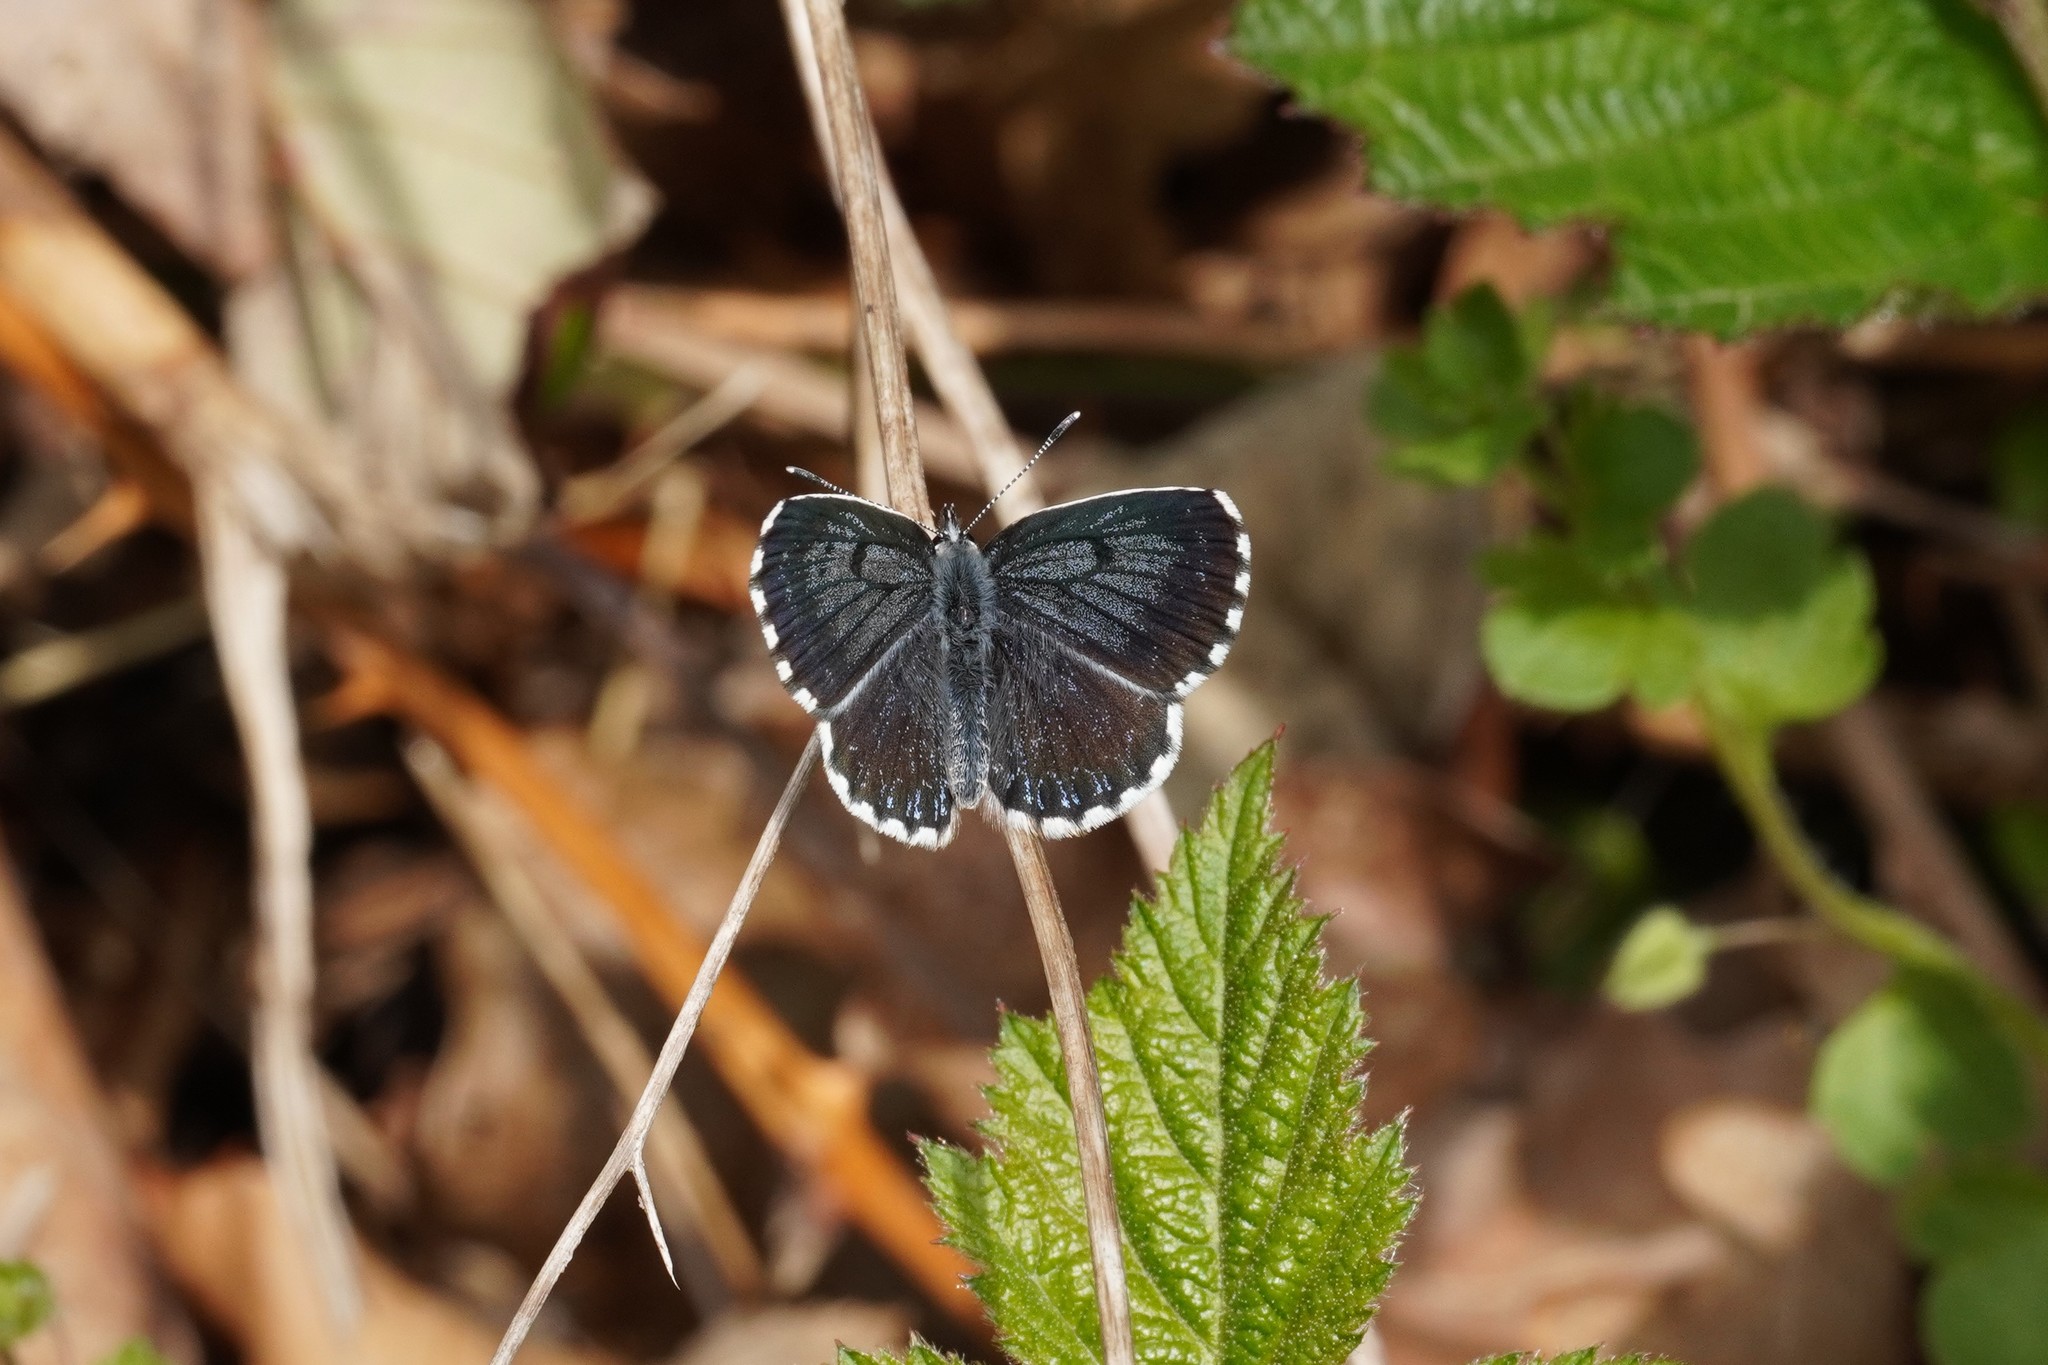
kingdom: Animalia
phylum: Arthropoda
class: Insecta
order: Lepidoptera
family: Lycaenidae
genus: Scolitantides
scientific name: Scolitantides orion
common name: Chequered blue
